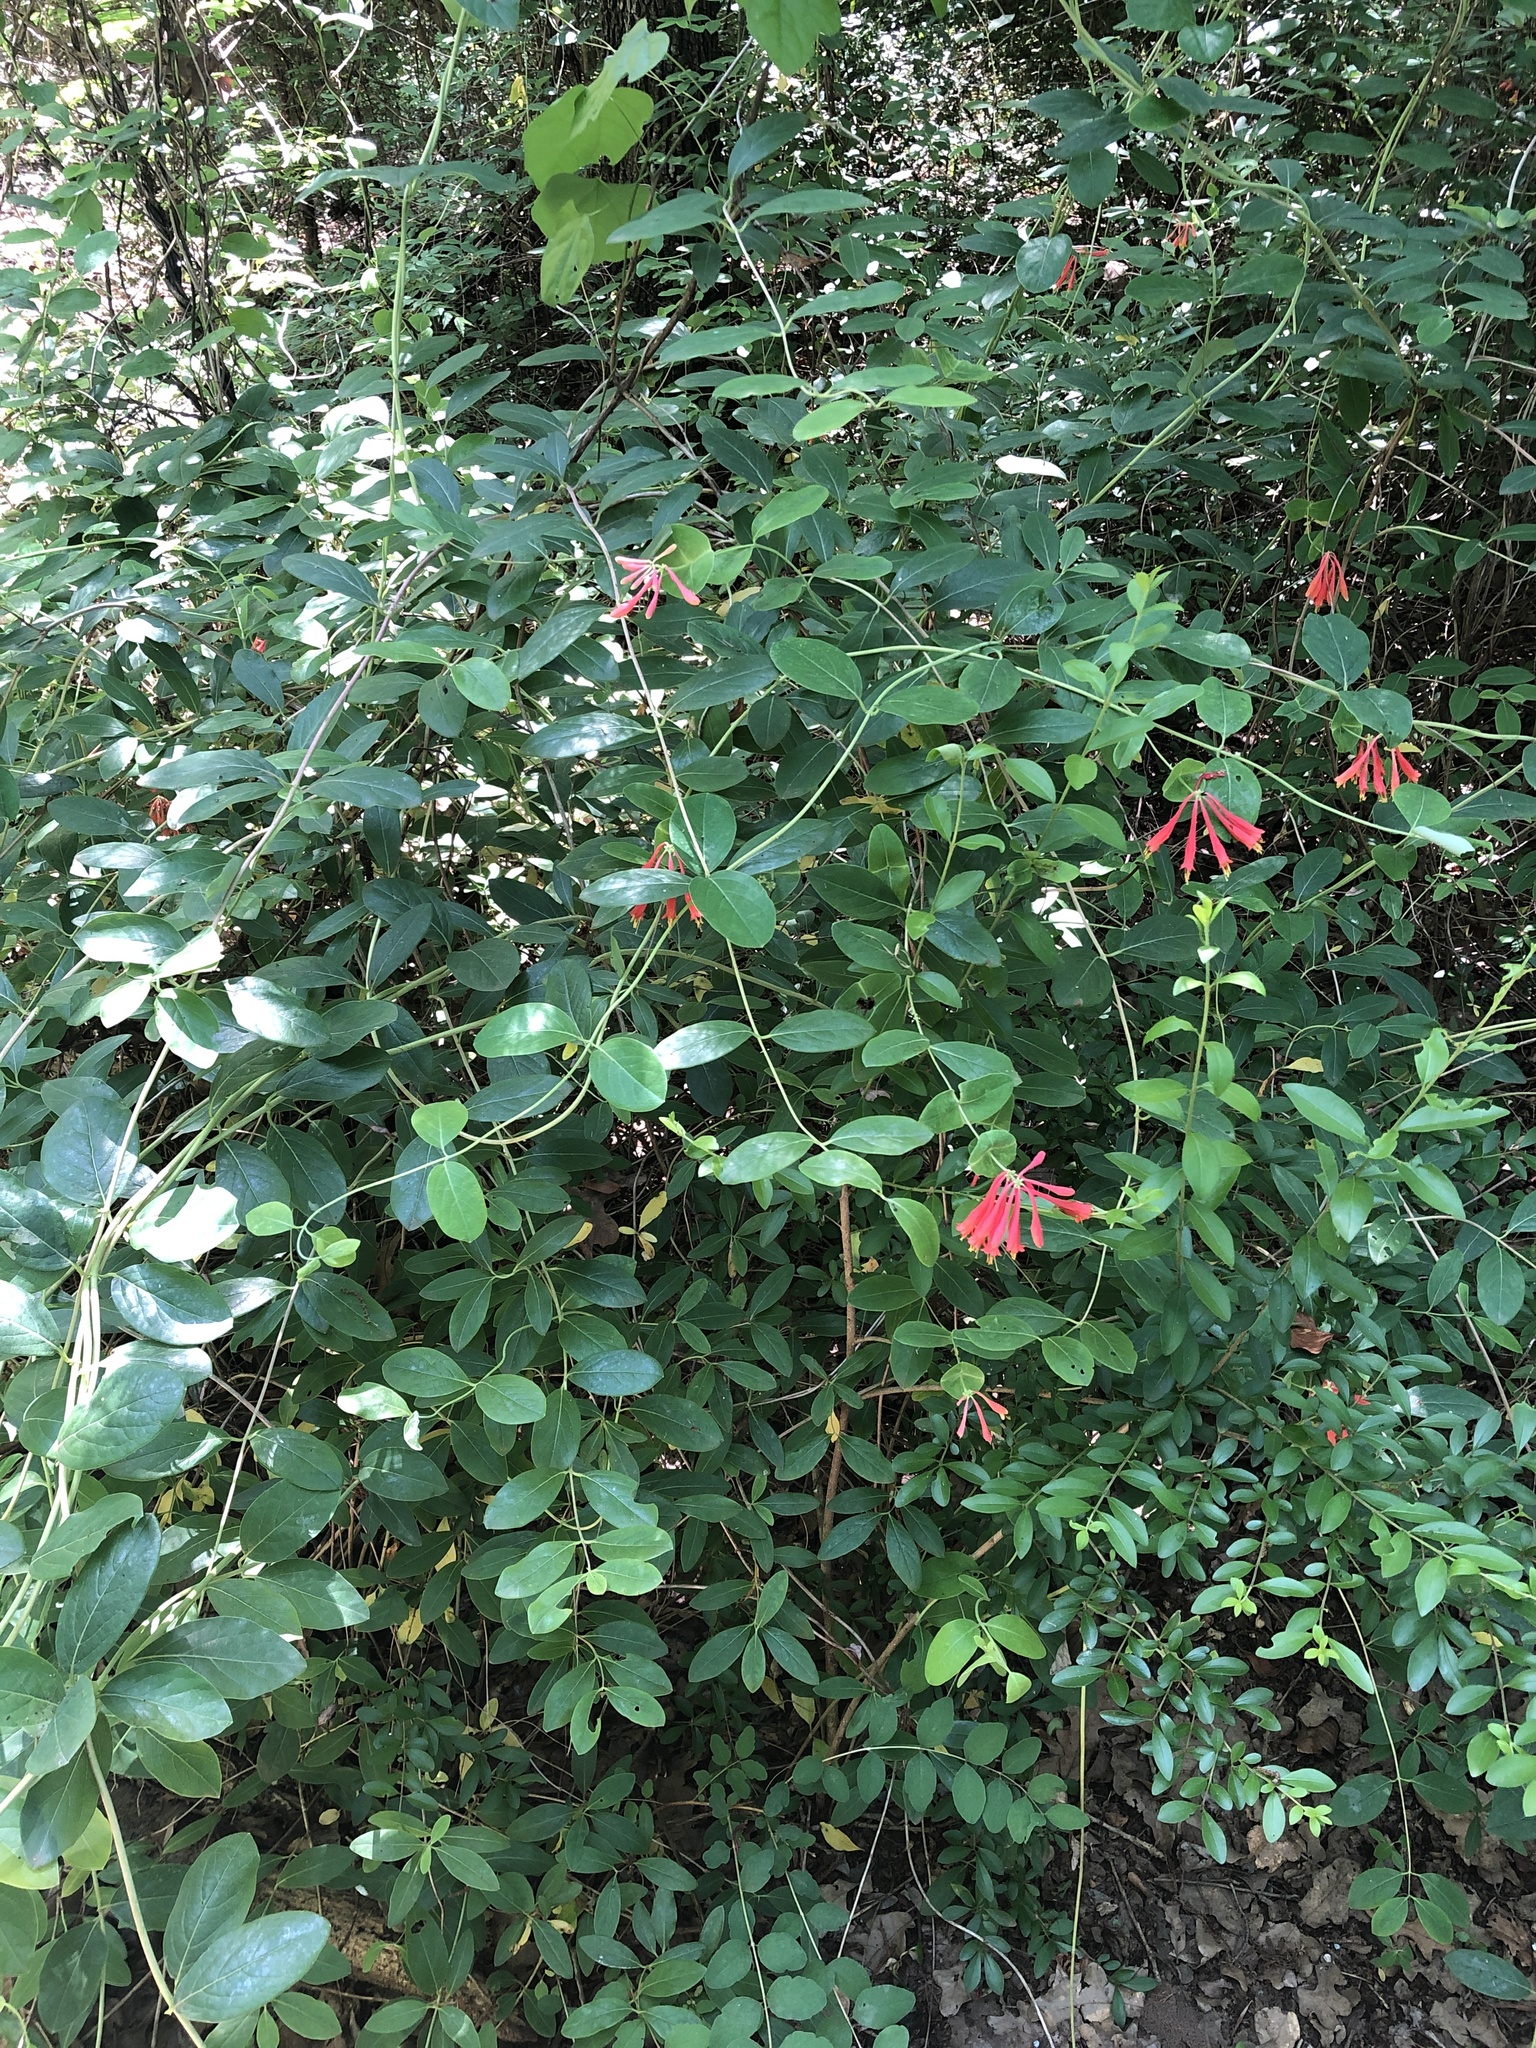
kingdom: Plantae
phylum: Tracheophyta
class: Magnoliopsida
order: Dipsacales
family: Caprifoliaceae
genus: Lonicera
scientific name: Lonicera sempervirens
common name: Coral honeysuckle
